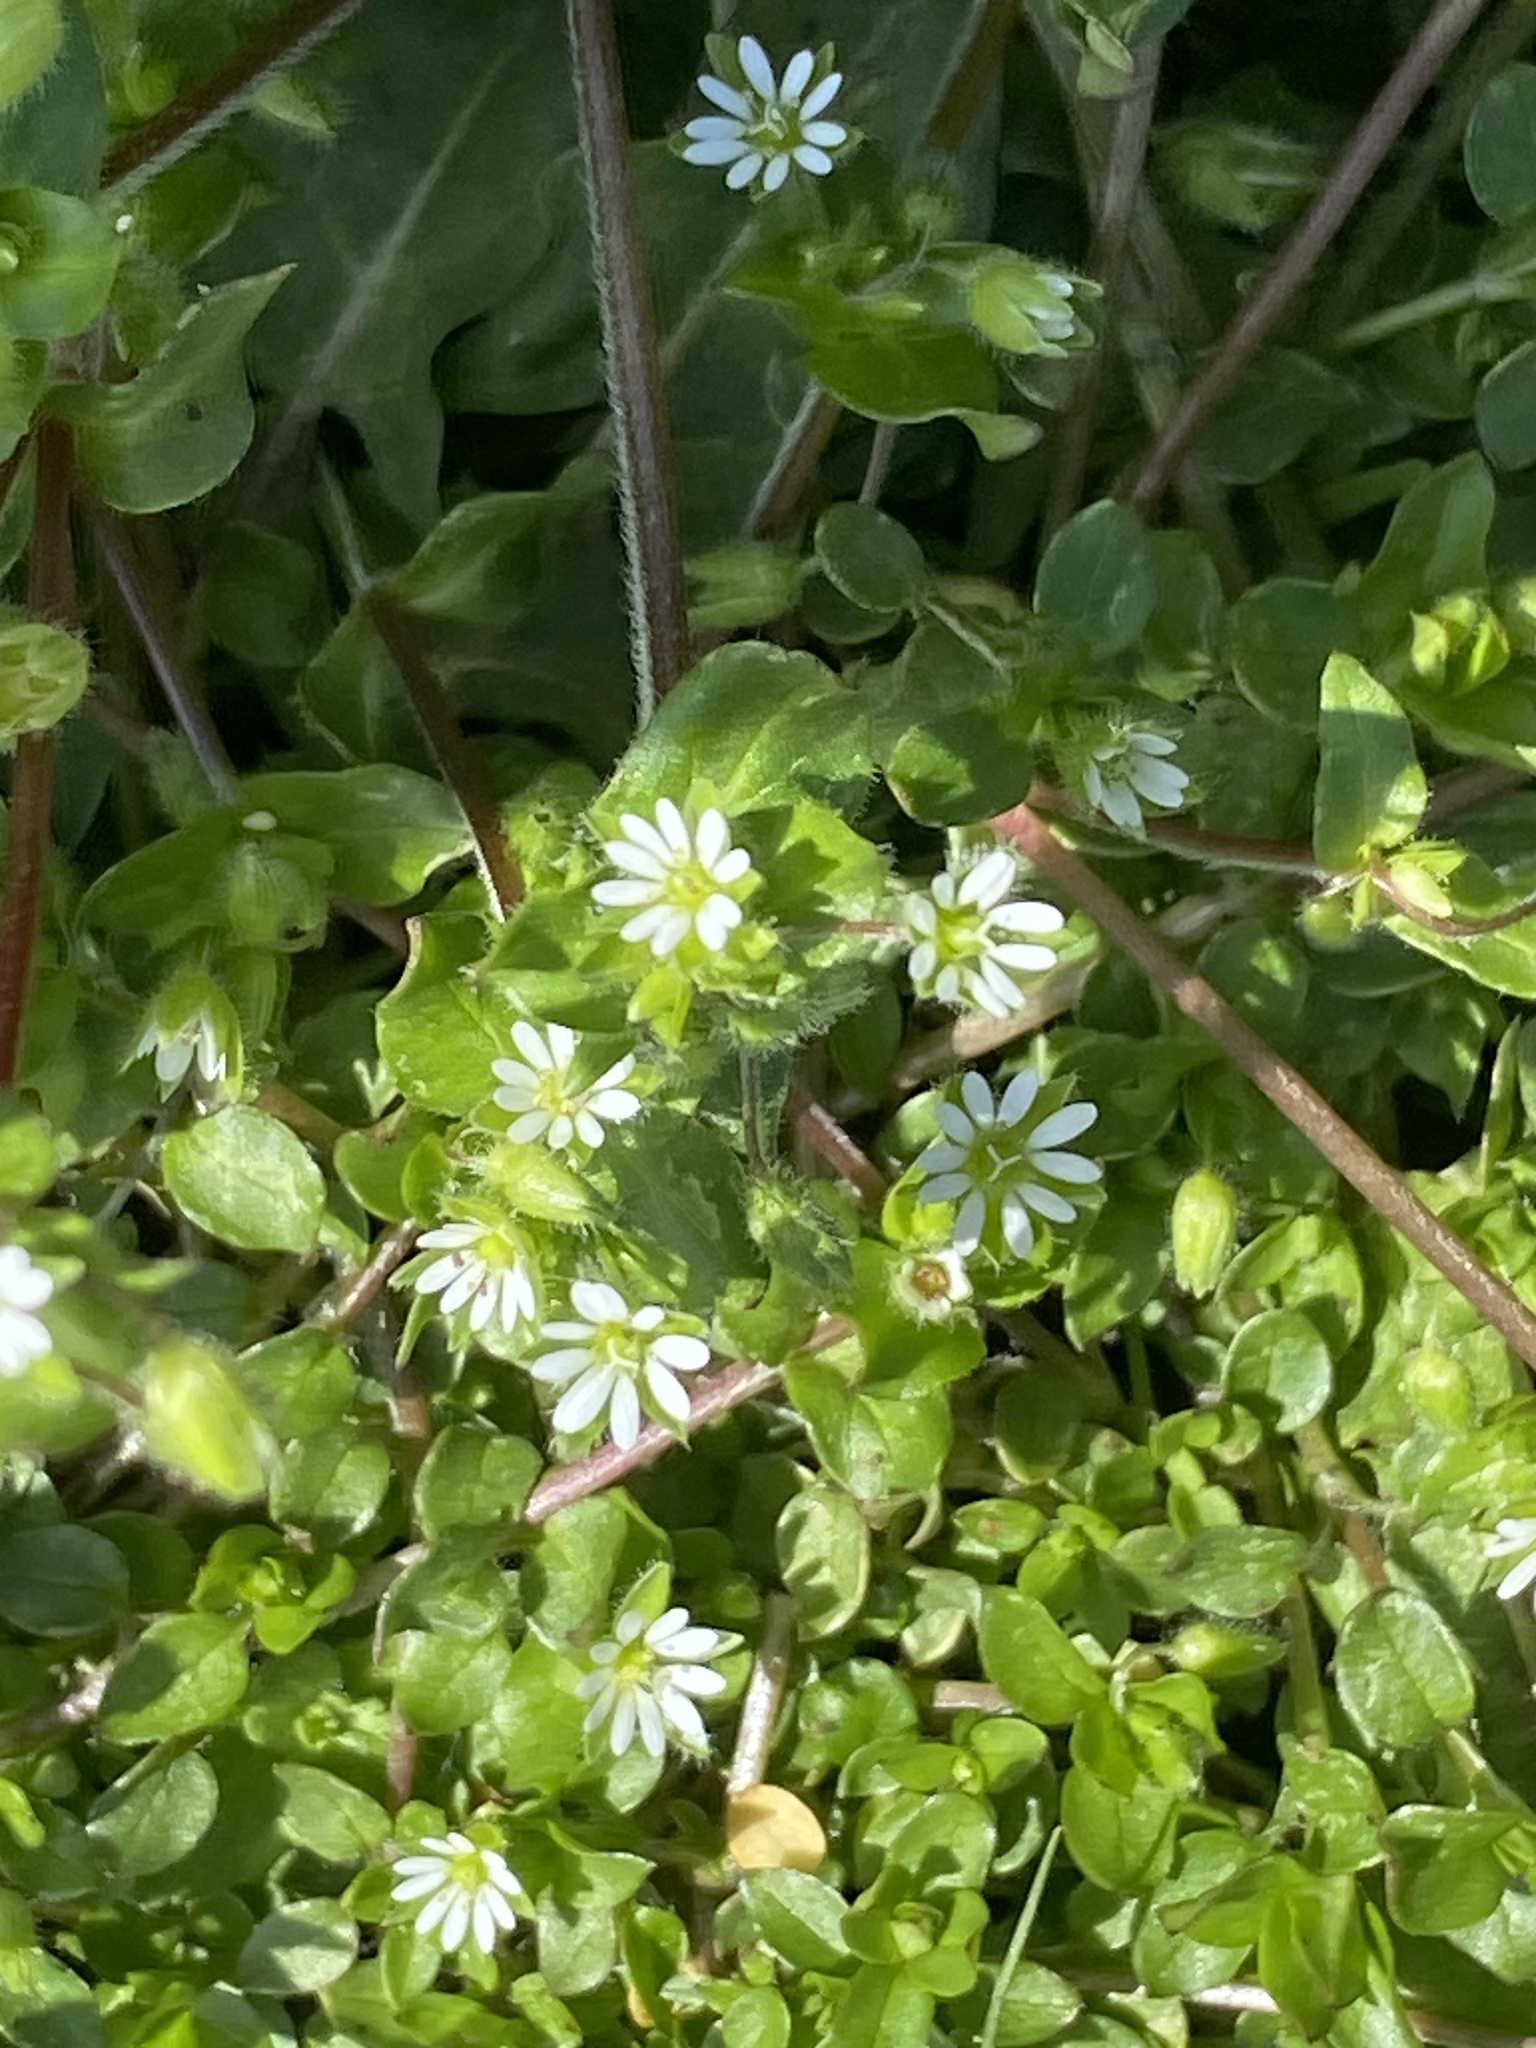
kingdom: Plantae
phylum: Tracheophyta
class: Magnoliopsida
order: Caryophyllales
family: Caryophyllaceae
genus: Stellaria
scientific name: Stellaria media
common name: Common chickweed
